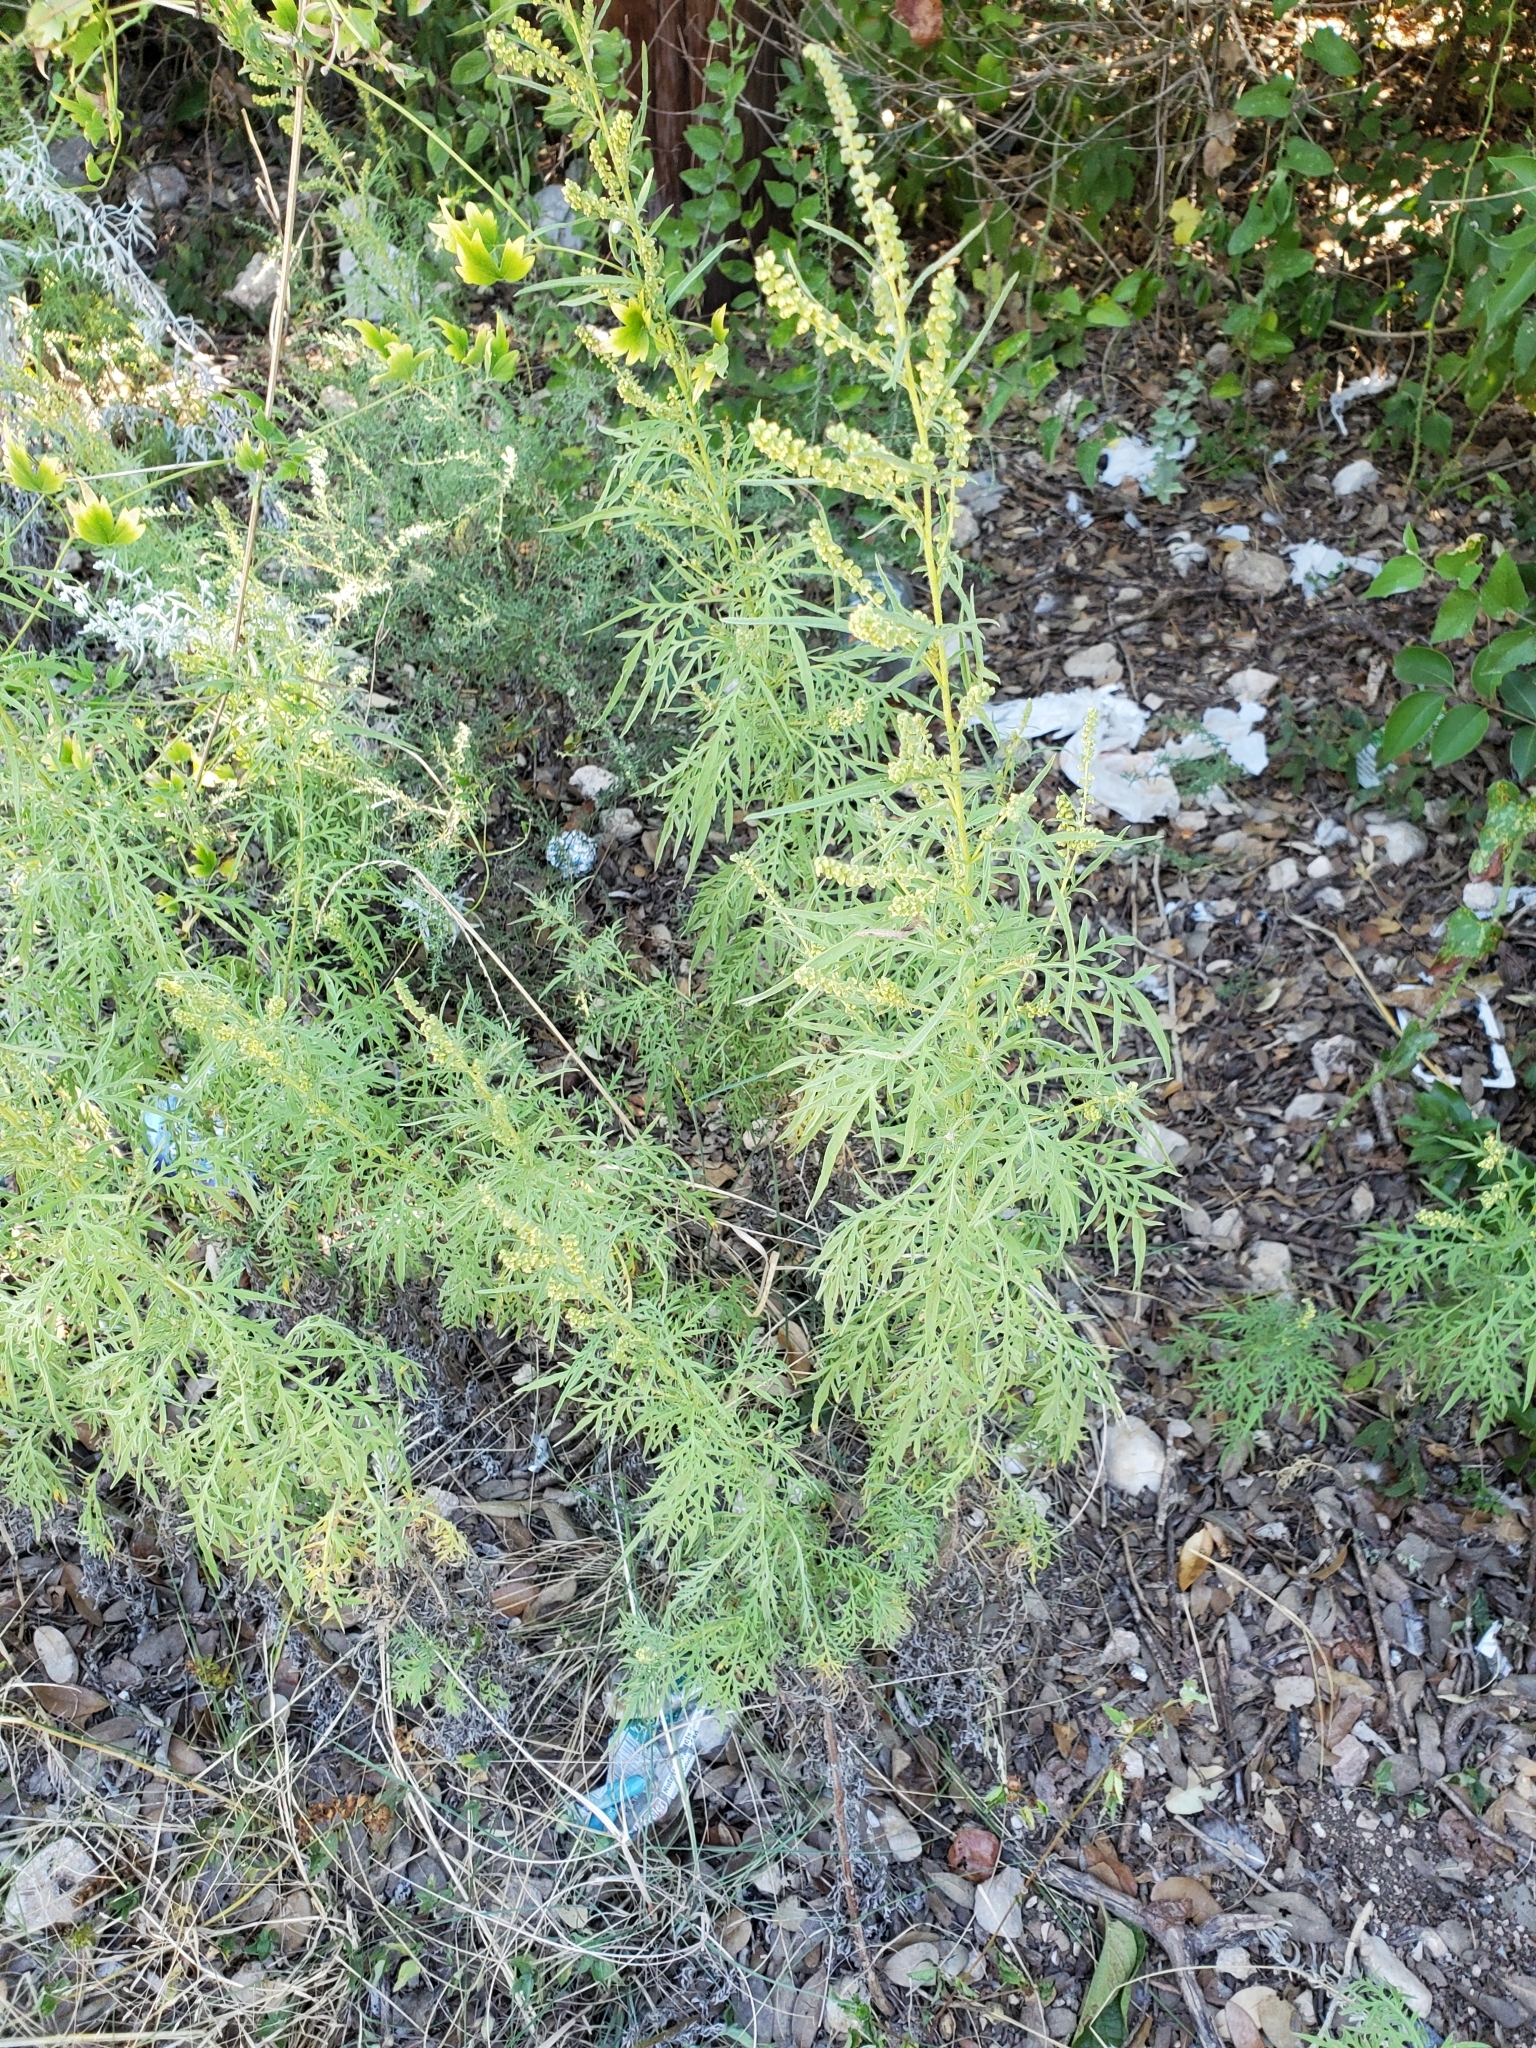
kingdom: Plantae
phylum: Tracheophyta
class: Magnoliopsida
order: Asterales
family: Asteraceae
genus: Ambrosia
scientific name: Ambrosia psilostachya
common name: Perennial ragweed
